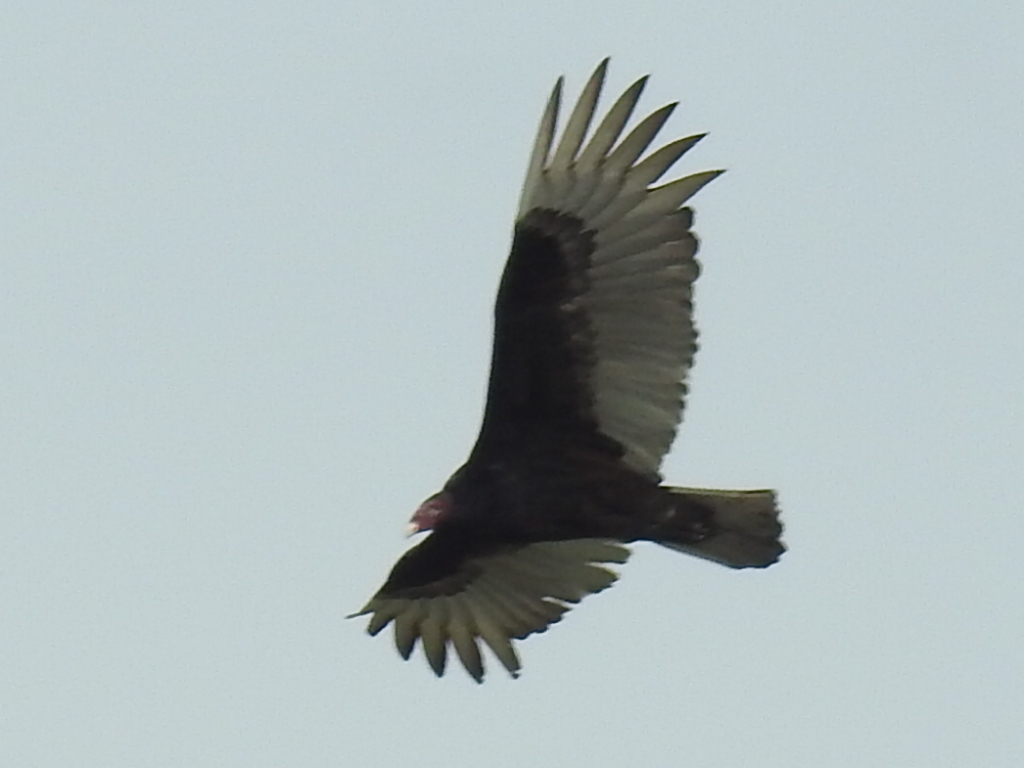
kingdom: Animalia
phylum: Chordata
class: Aves
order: Accipitriformes
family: Cathartidae
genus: Cathartes
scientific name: Cathartes aura
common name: Turkey vulture
